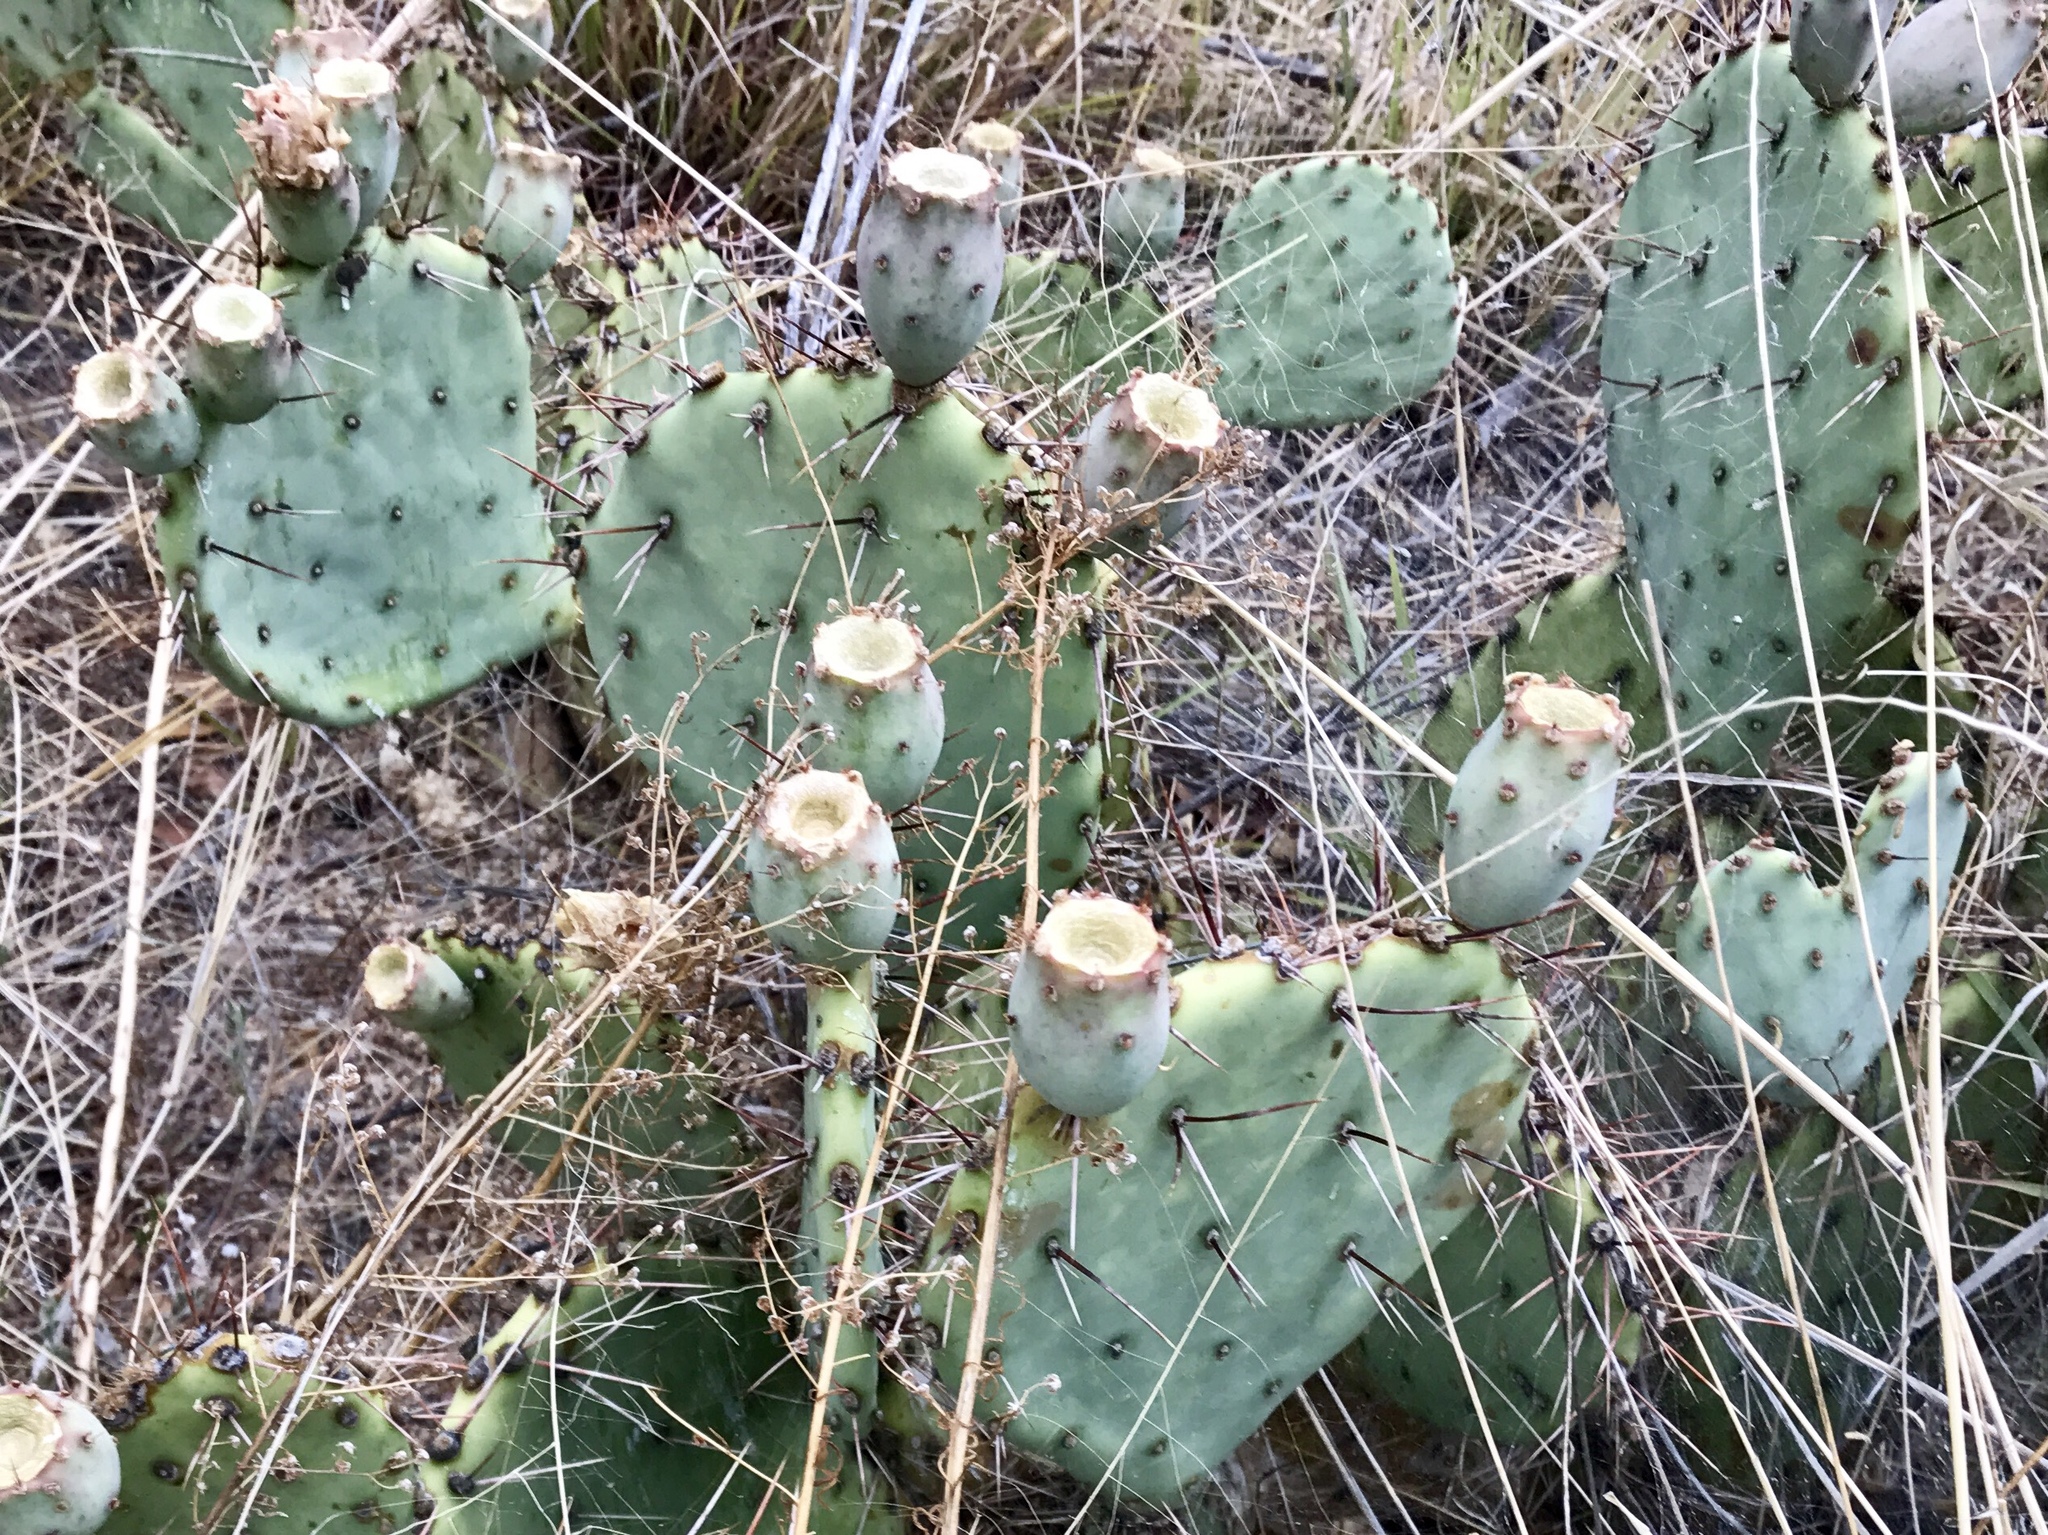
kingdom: Plantae
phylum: Tracheophyta
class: Magnoliopsida
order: Caryophyllales
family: Cactaceae
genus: Opuntia
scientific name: Opuntia phaeacantha
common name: New mexico prickly-pear
